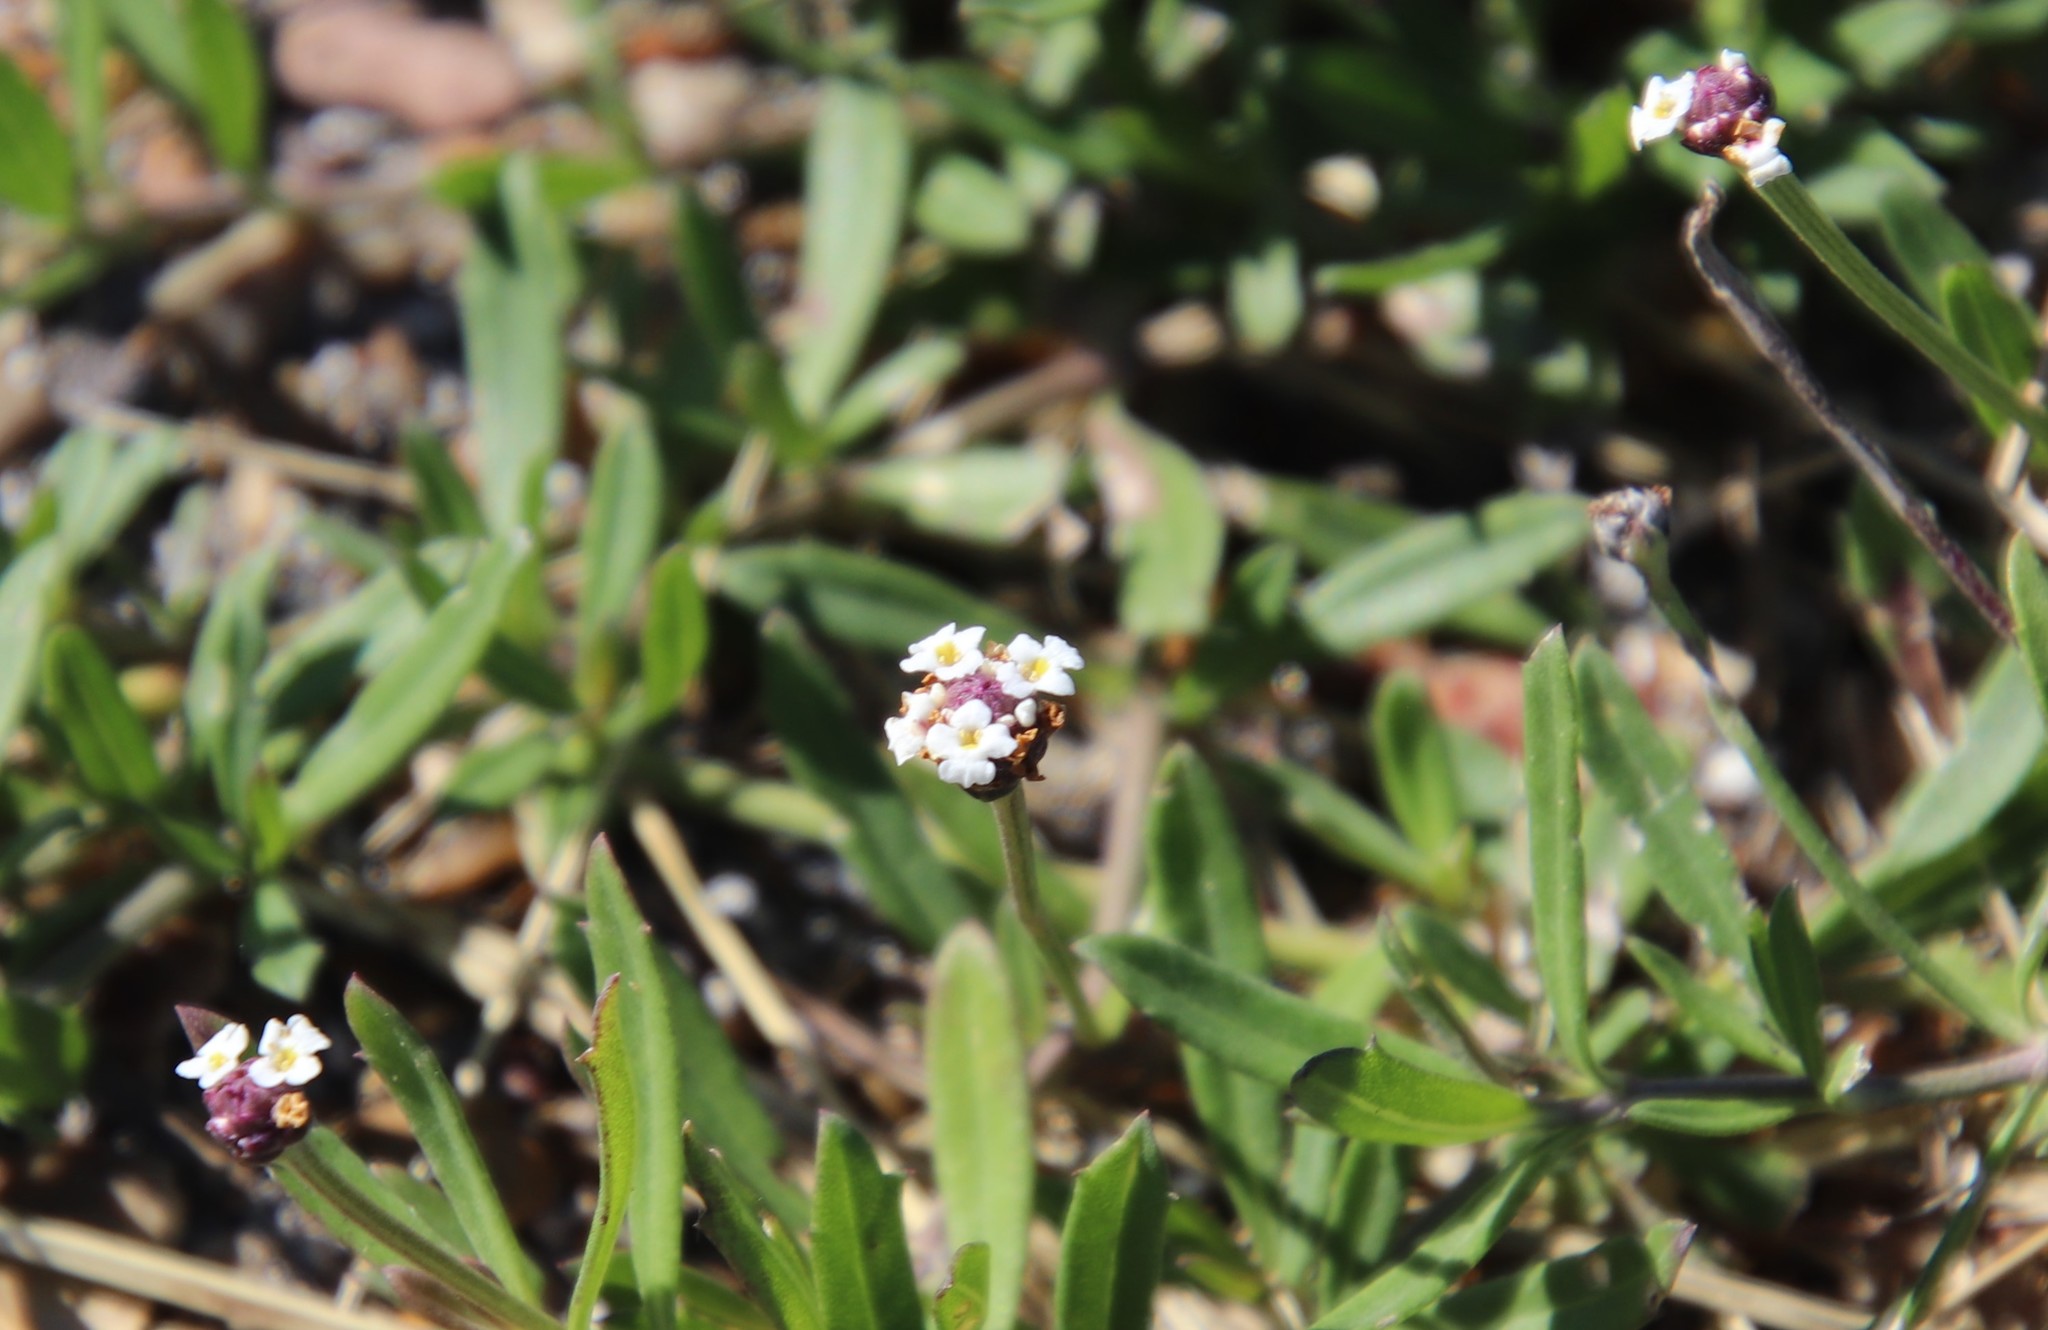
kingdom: Plantae
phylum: Tracheophyta
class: Magnoliopsida
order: Lamiales
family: Verbenaceae
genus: Phyla
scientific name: Phyla nodiflora
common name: Frogfruit
